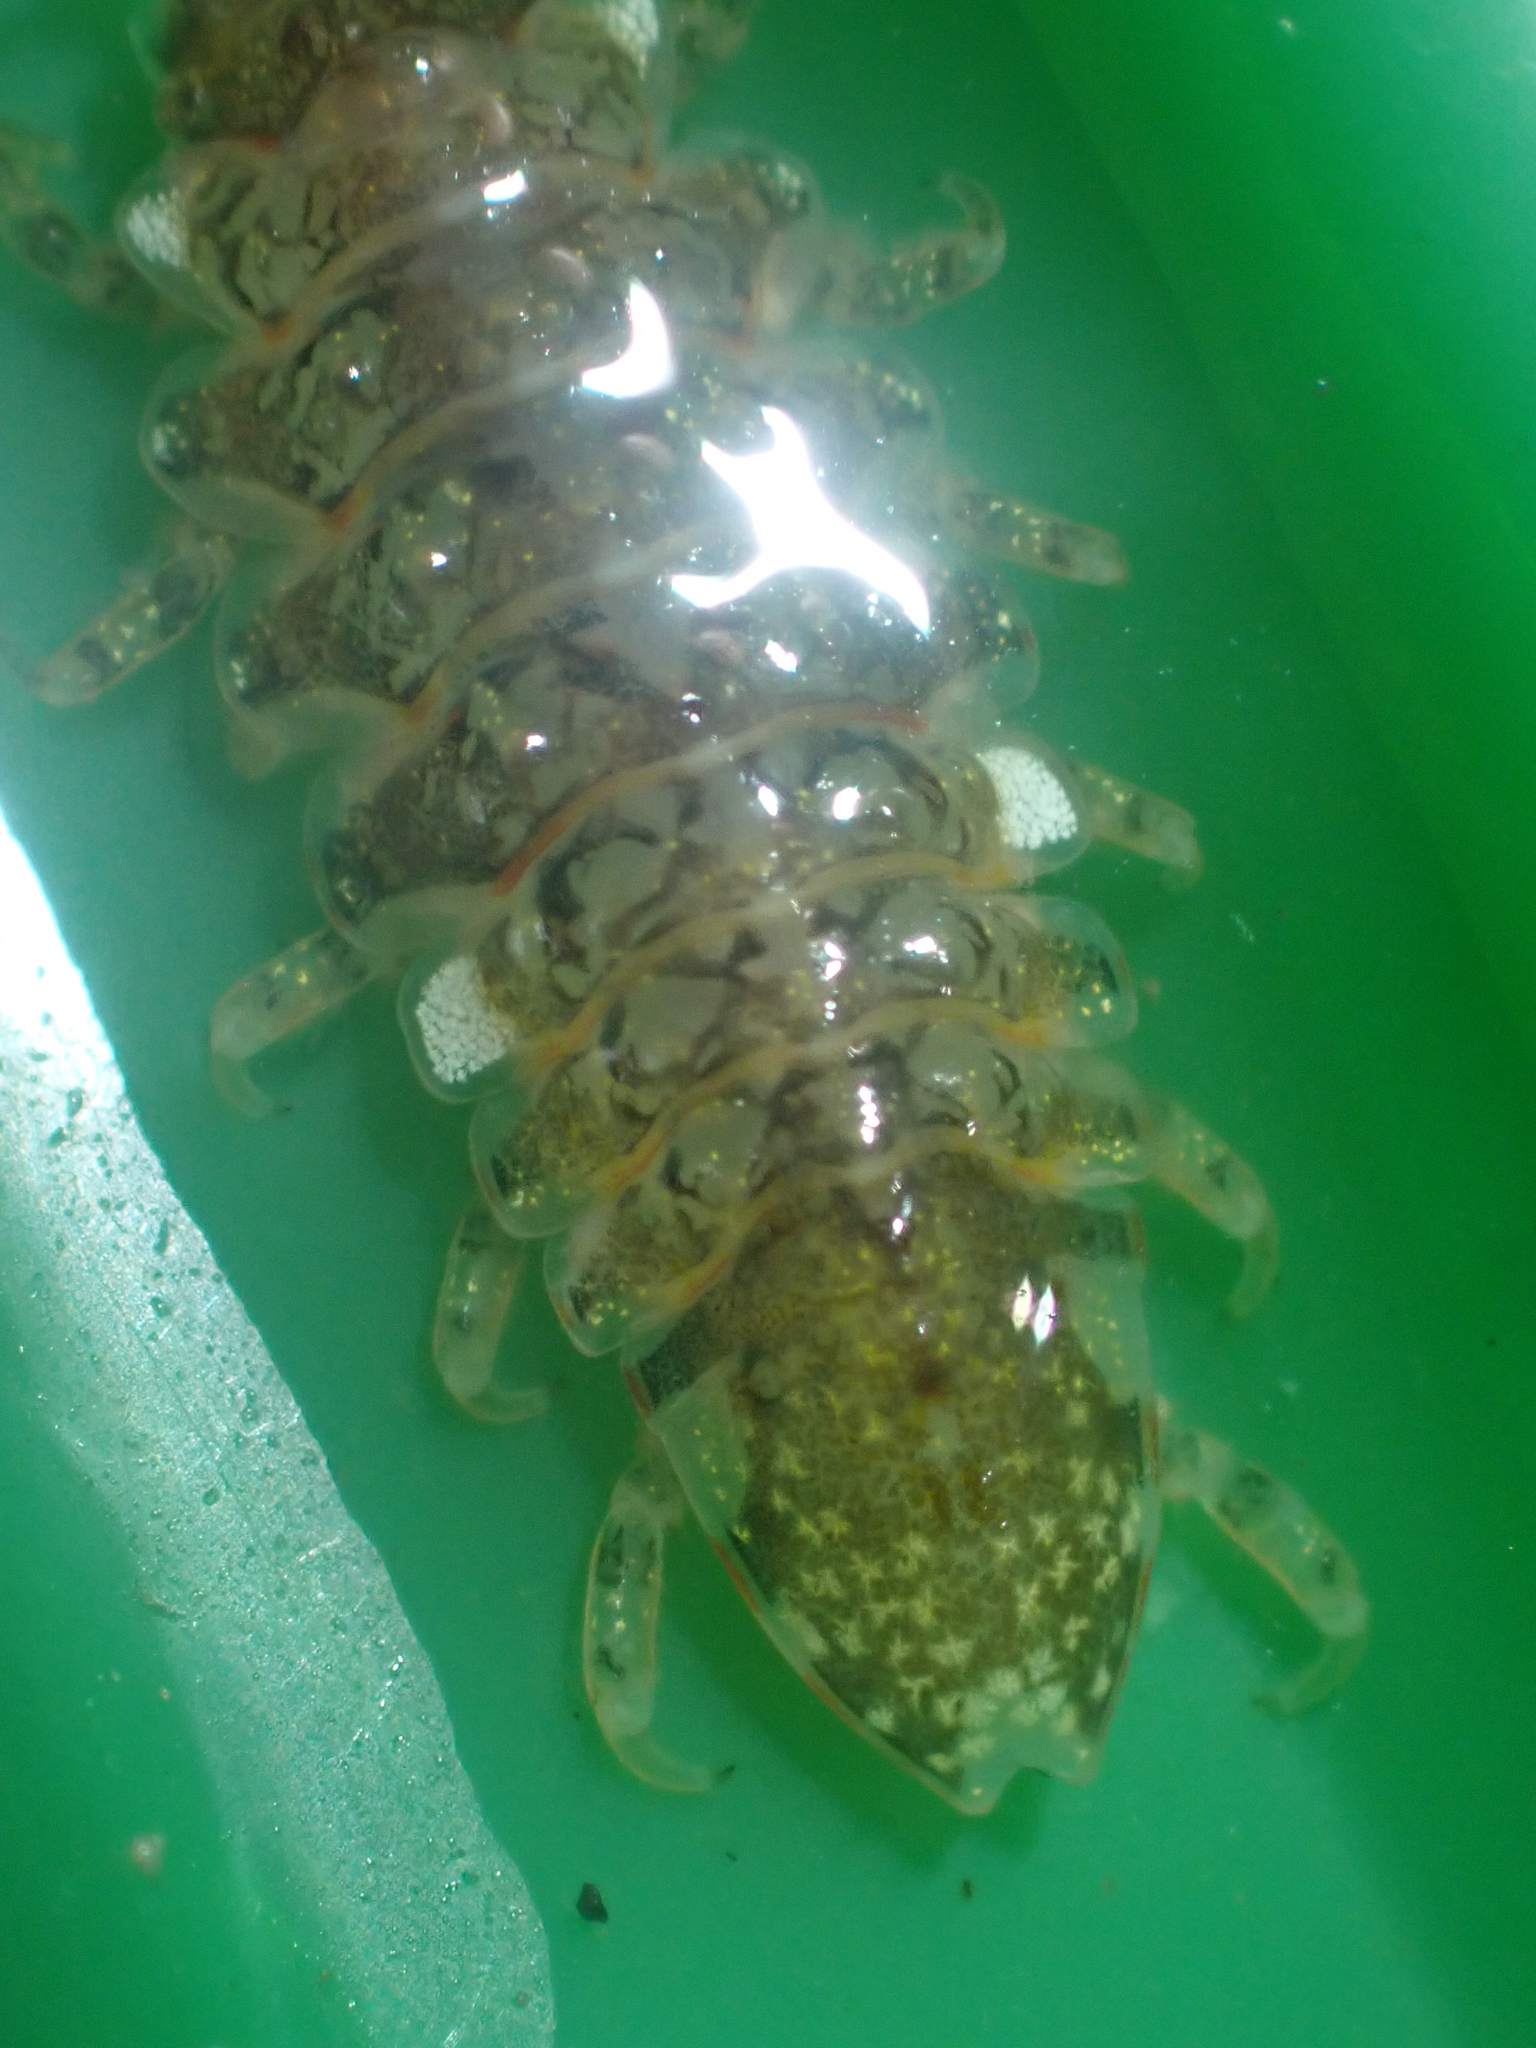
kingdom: Animalia
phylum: Arthropoda
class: Malacostraca
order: Isopoda
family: Idoteidae
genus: Synidotea
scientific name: Synidotea pettiboneae
